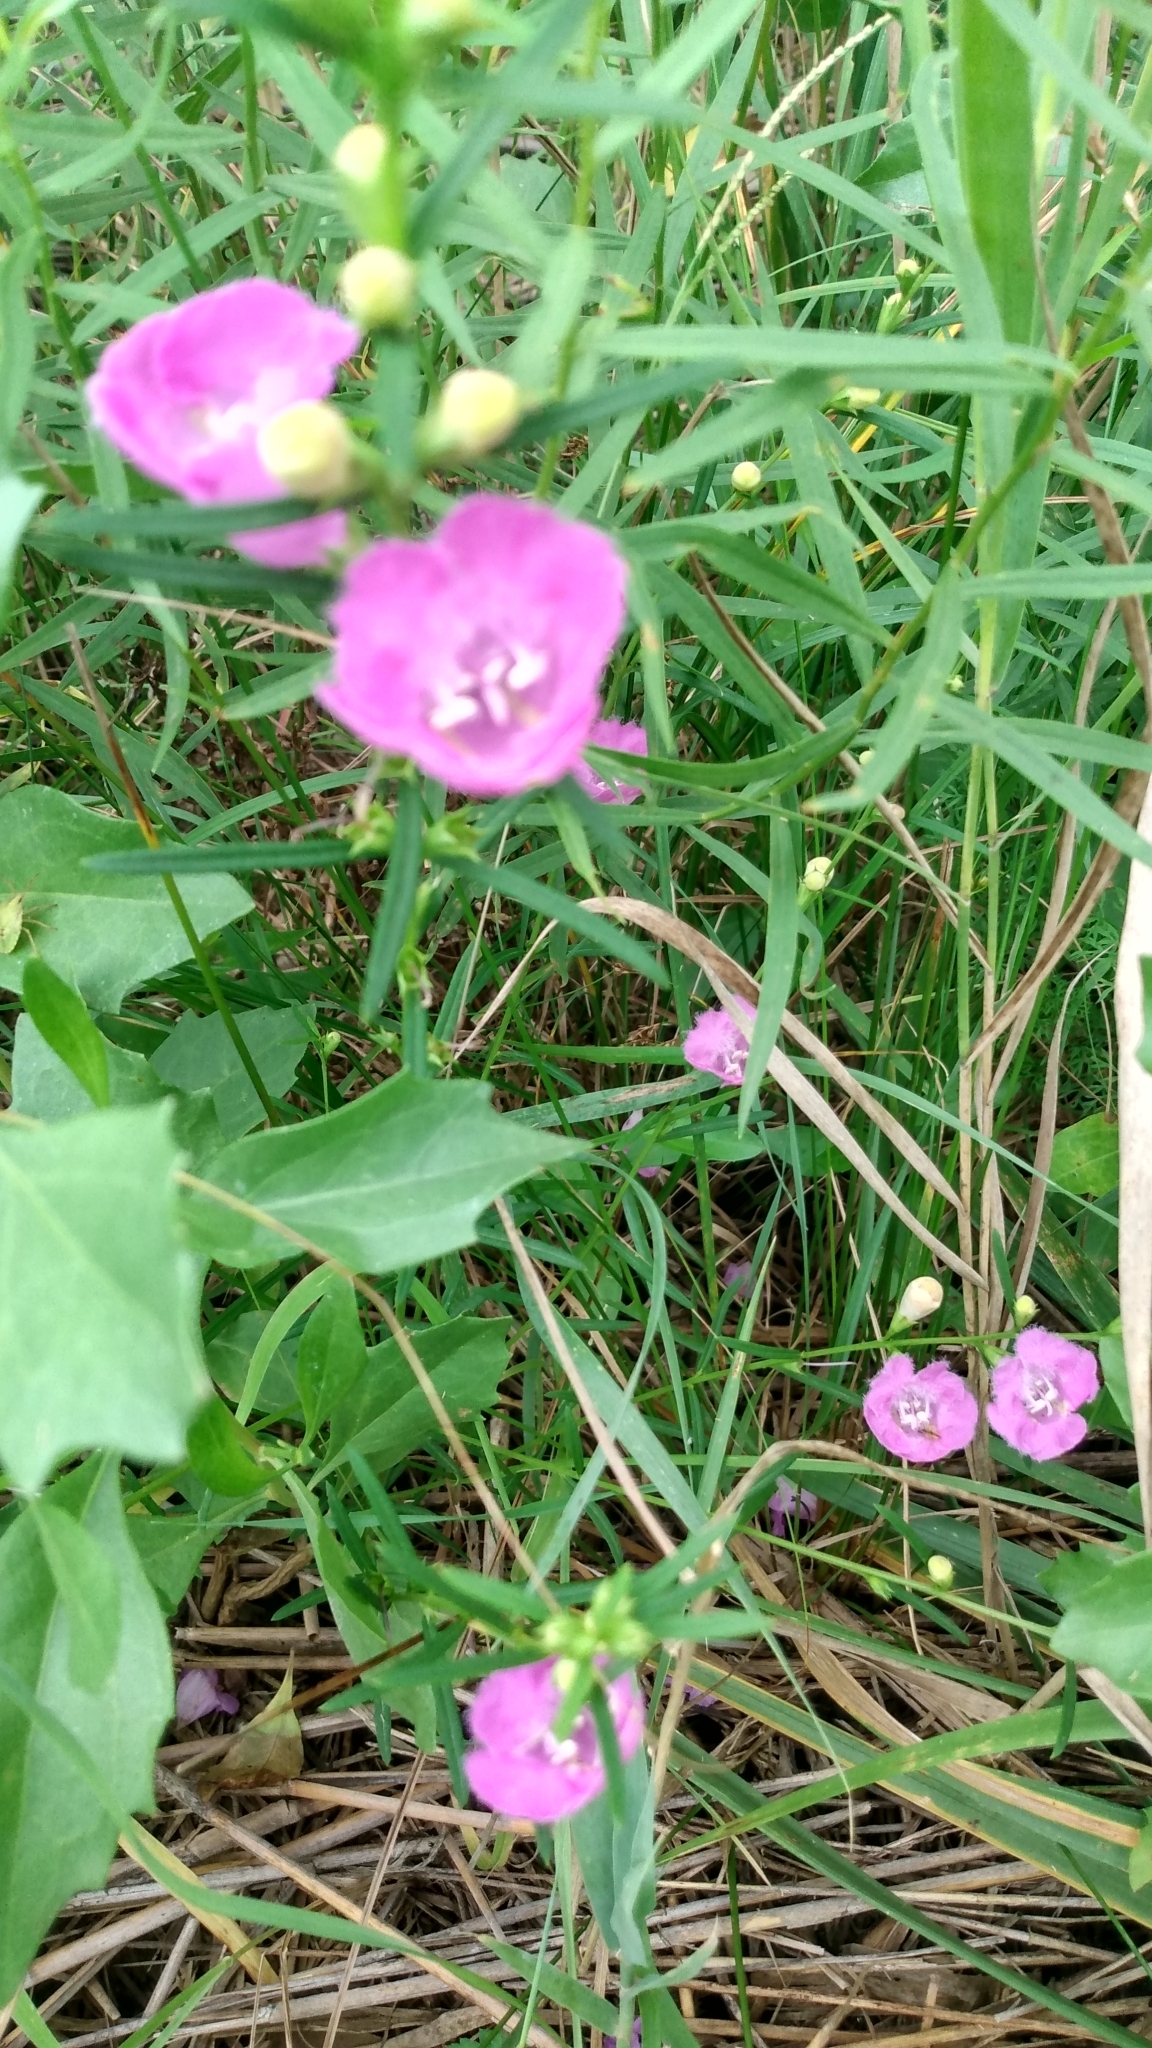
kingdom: Plantae
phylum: Tracheophyta
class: Magnoliopsida
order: Lamiales
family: Orobanchaceae
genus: Agalinis
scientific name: Agalinis purpurea
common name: Purple false foxglove
